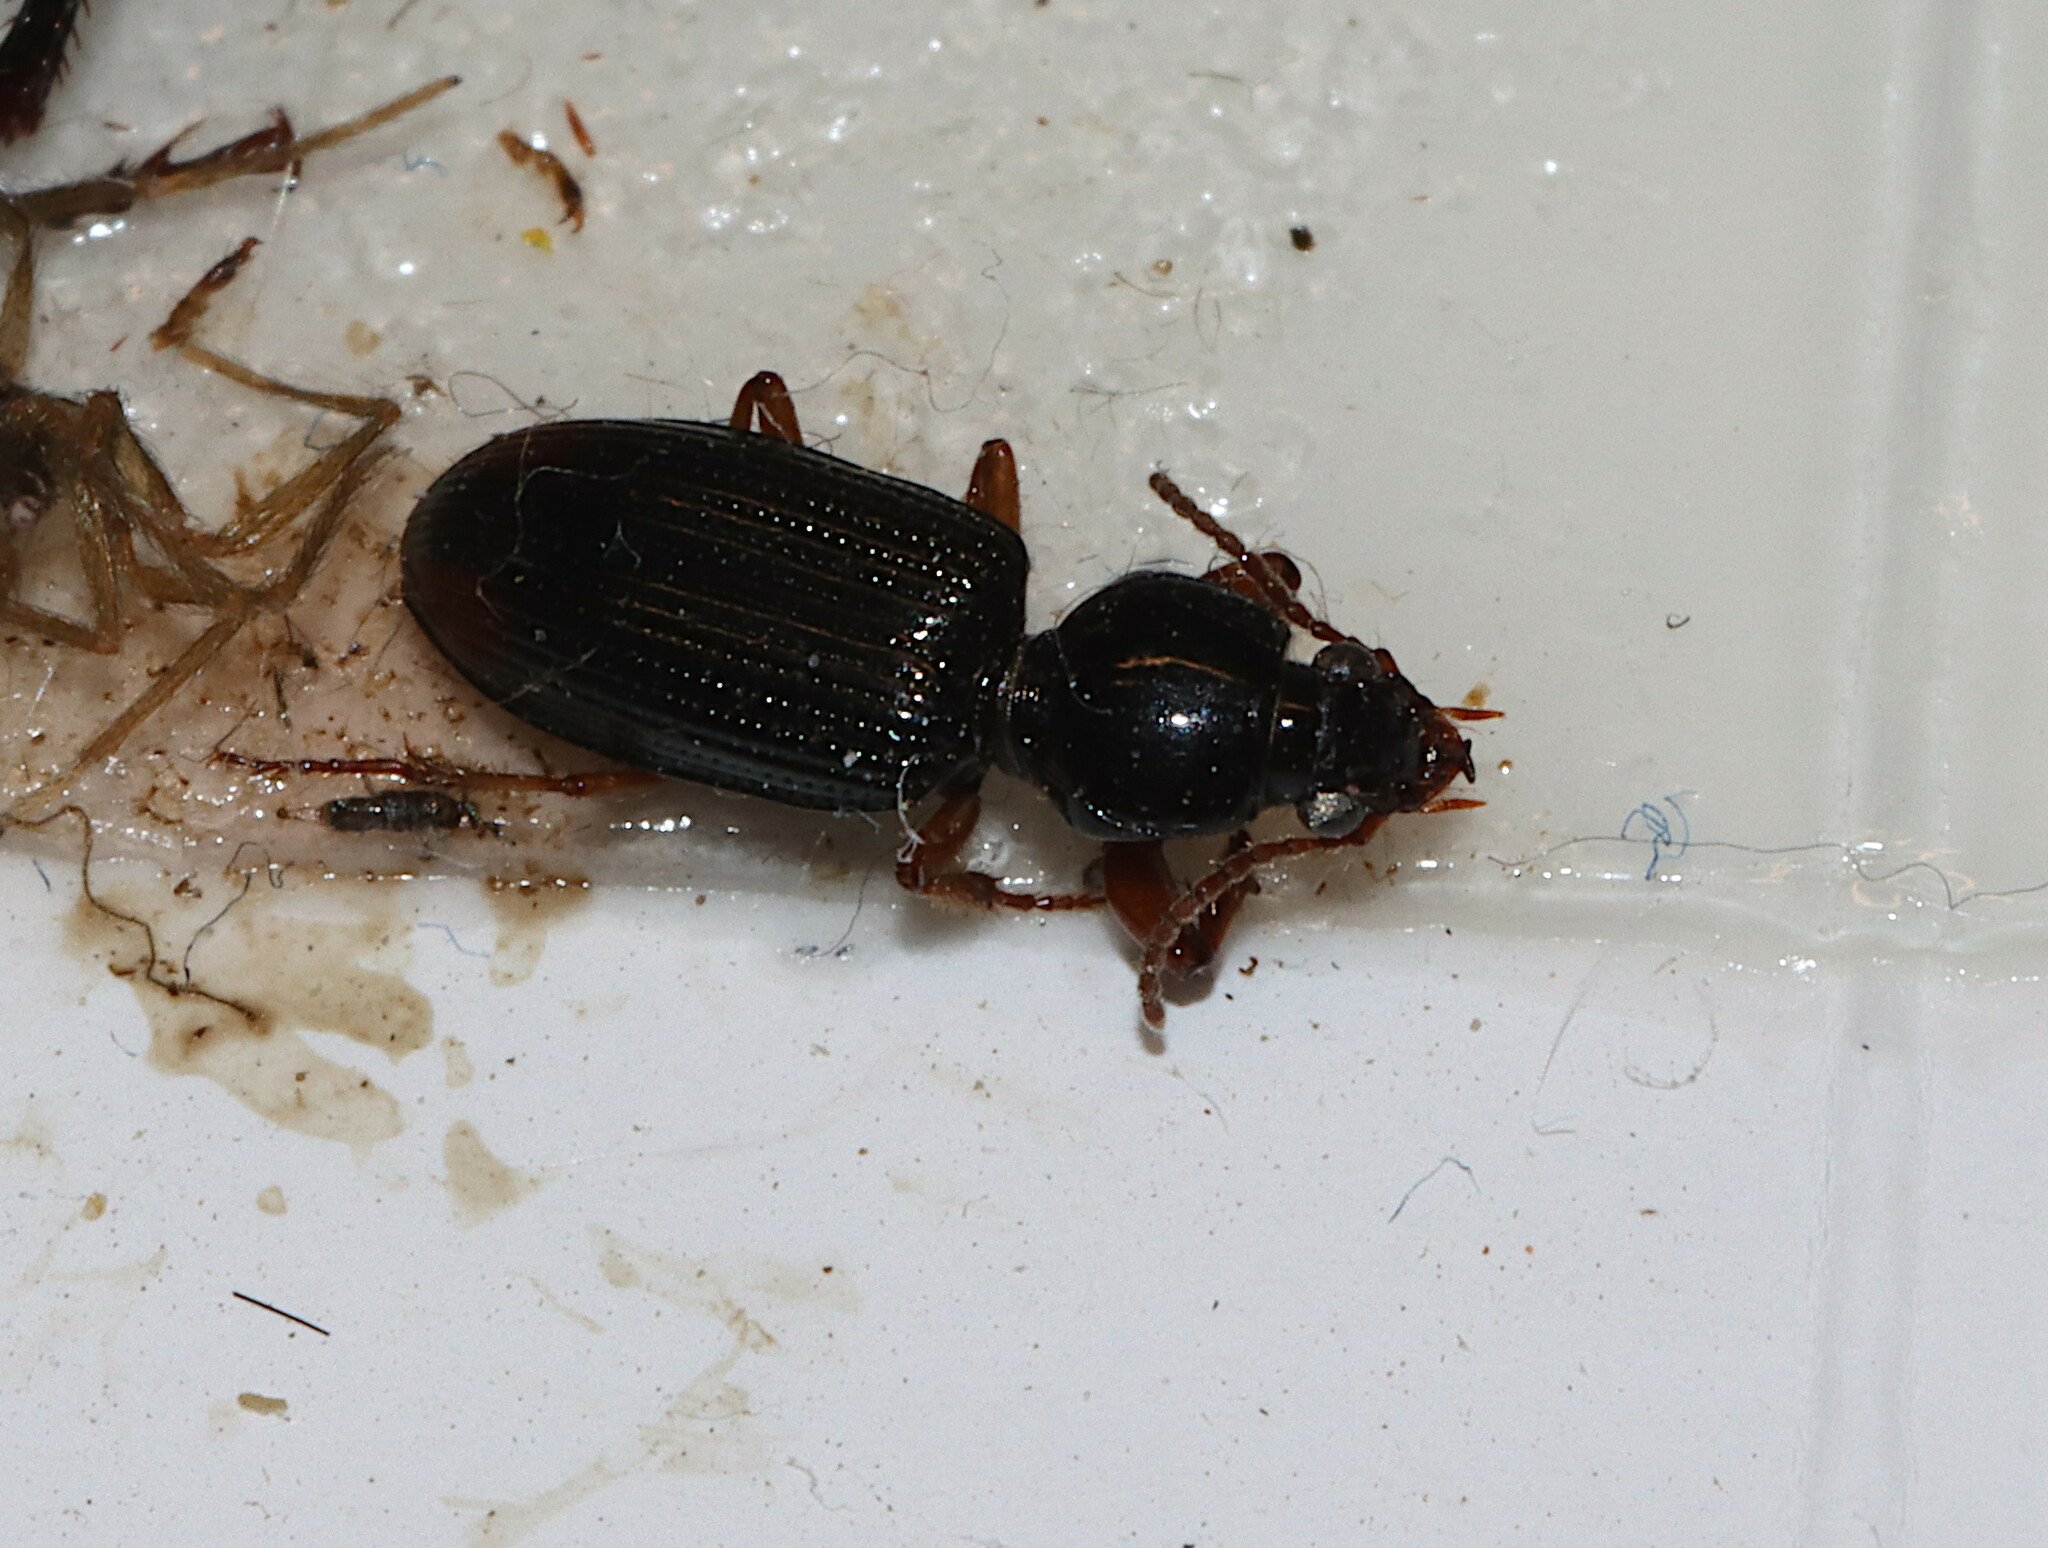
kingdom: Animalia
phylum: Arthropoda
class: Insecta
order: Coleoptera
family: Carabidae
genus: Aspidoglossa
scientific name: Aspidoglossa subangulata
